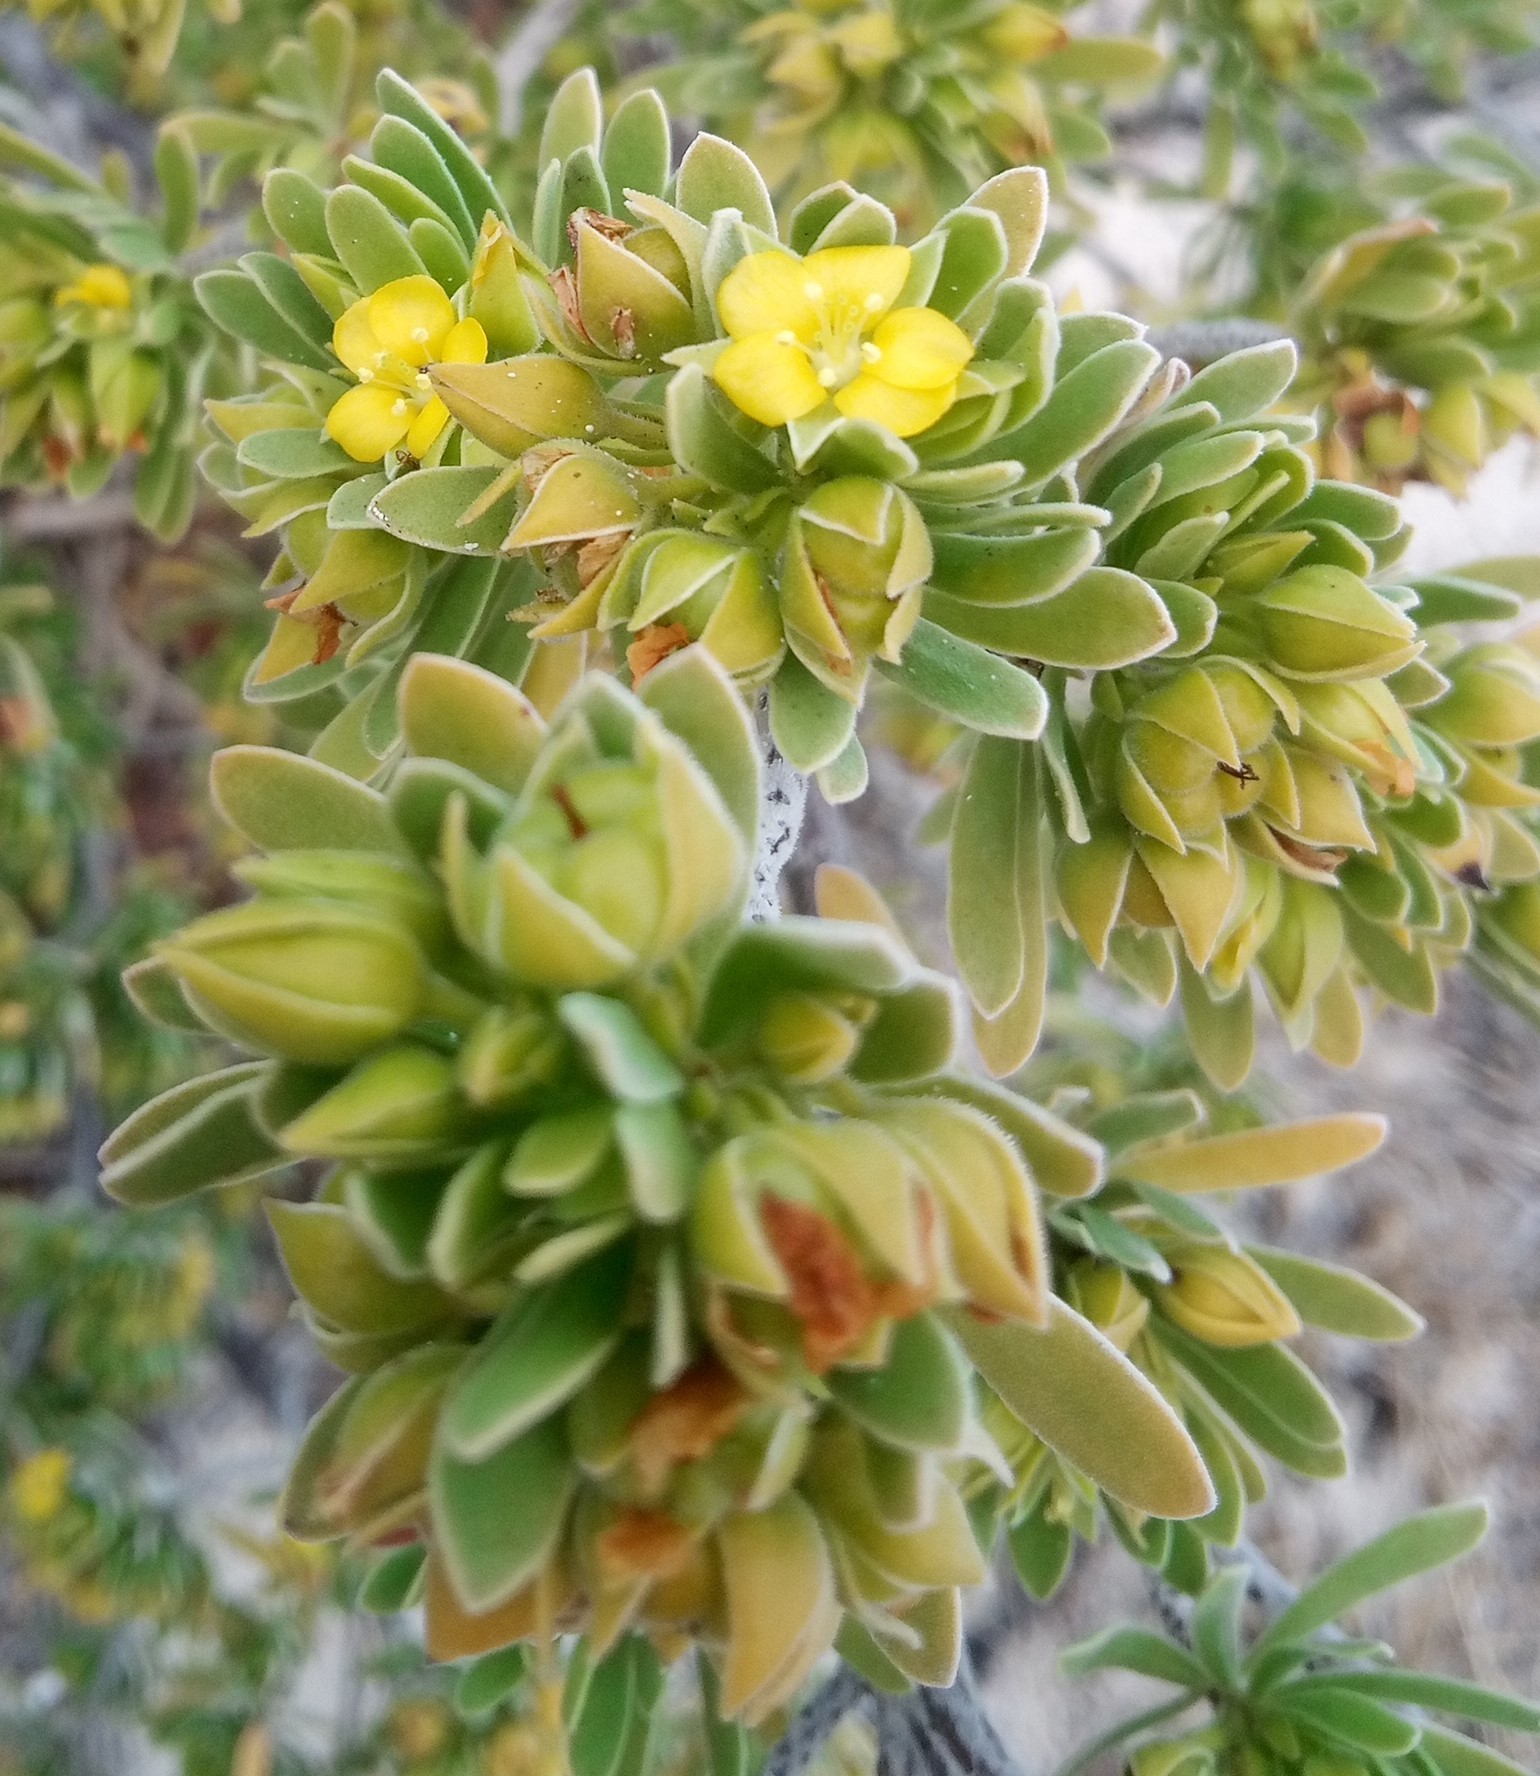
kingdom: Plantae
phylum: Tracheophyta
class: Magnoliopsida
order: Fabales
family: Surianaceae
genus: Suriana
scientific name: Suriana maritima
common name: Bay-cedar
